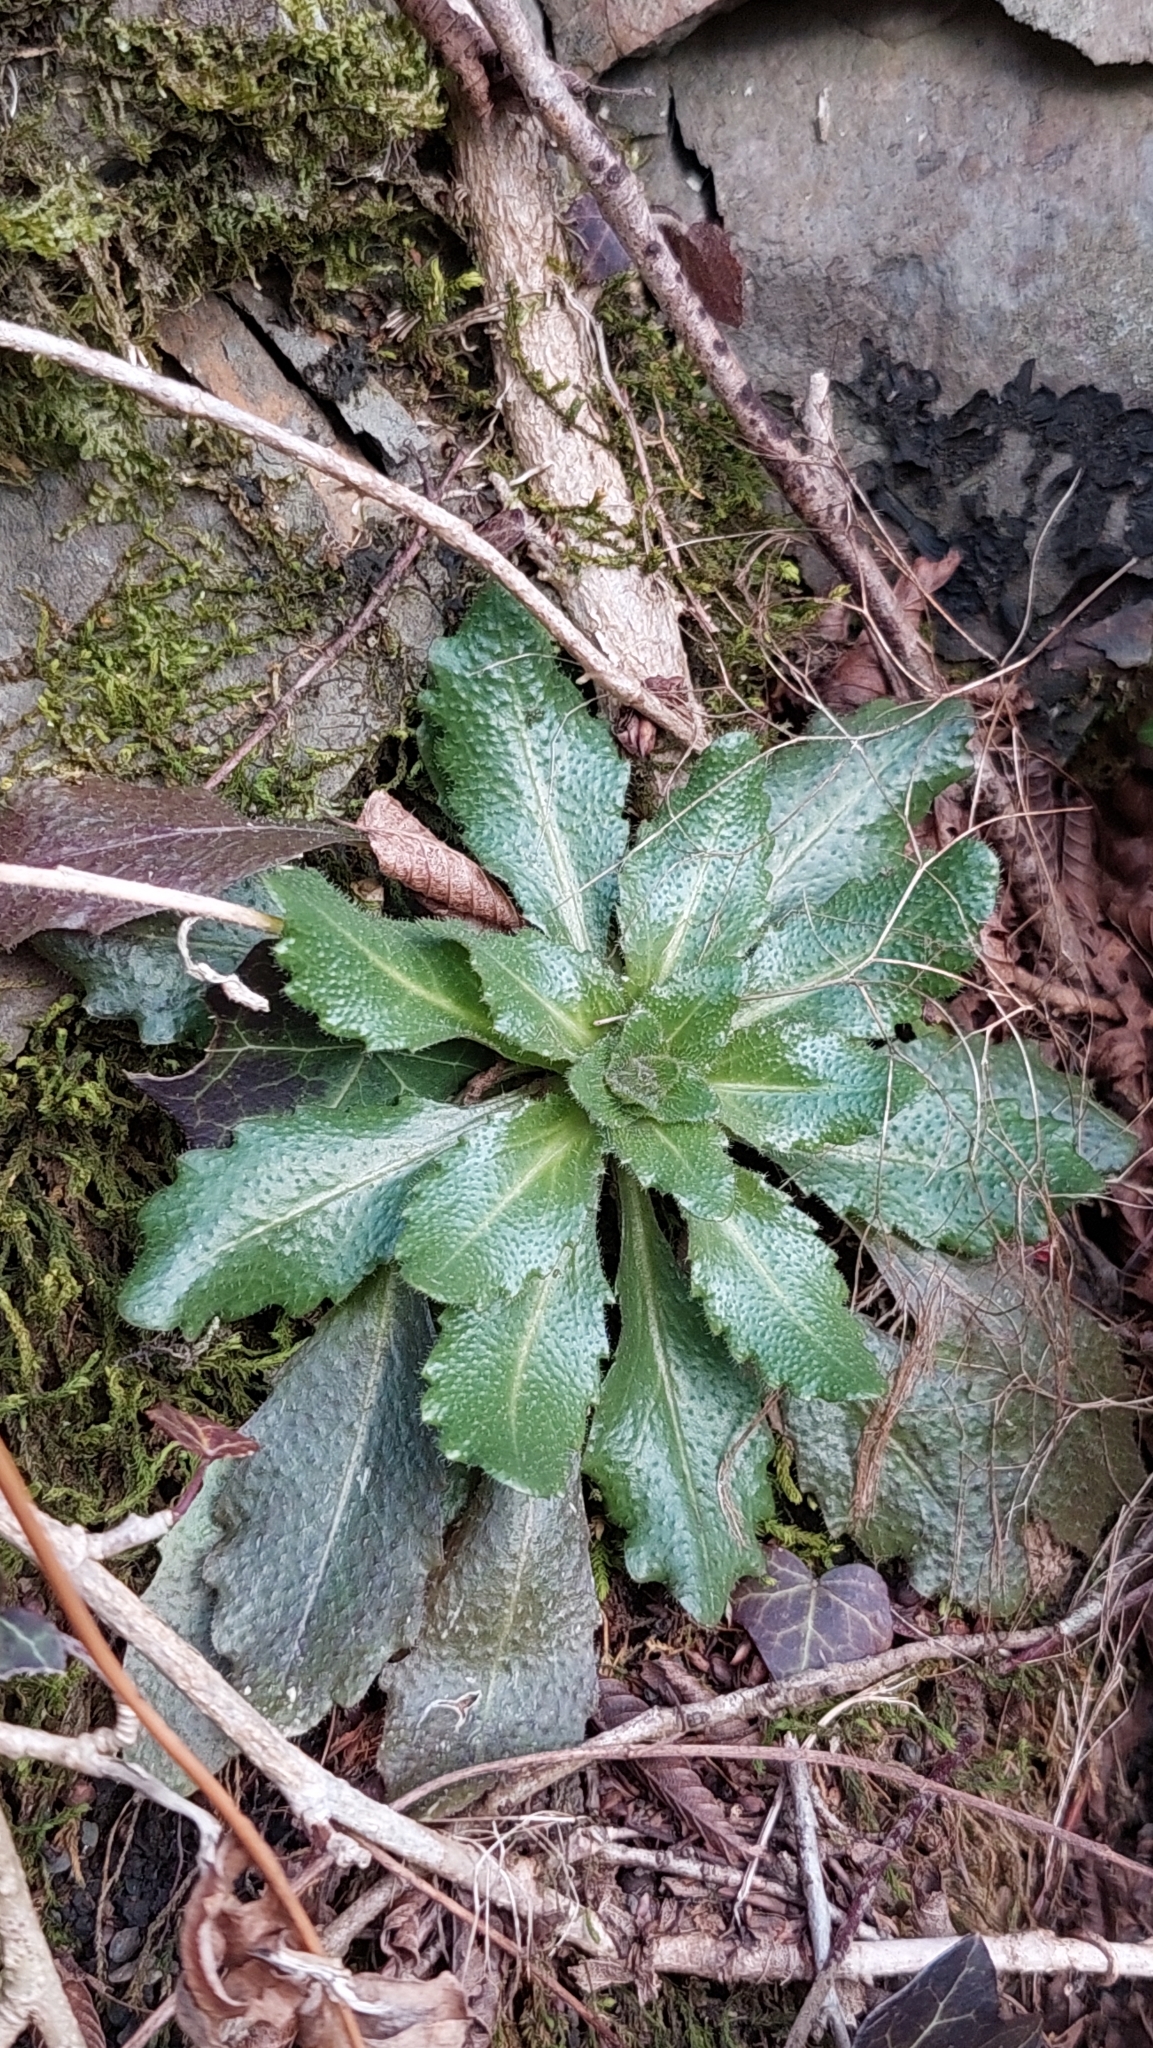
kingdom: Plantae
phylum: Tracheophyta
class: Magnoliopsida
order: Brassicales
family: Brassicaceae
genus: Arabis
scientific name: Arabis sagittata
